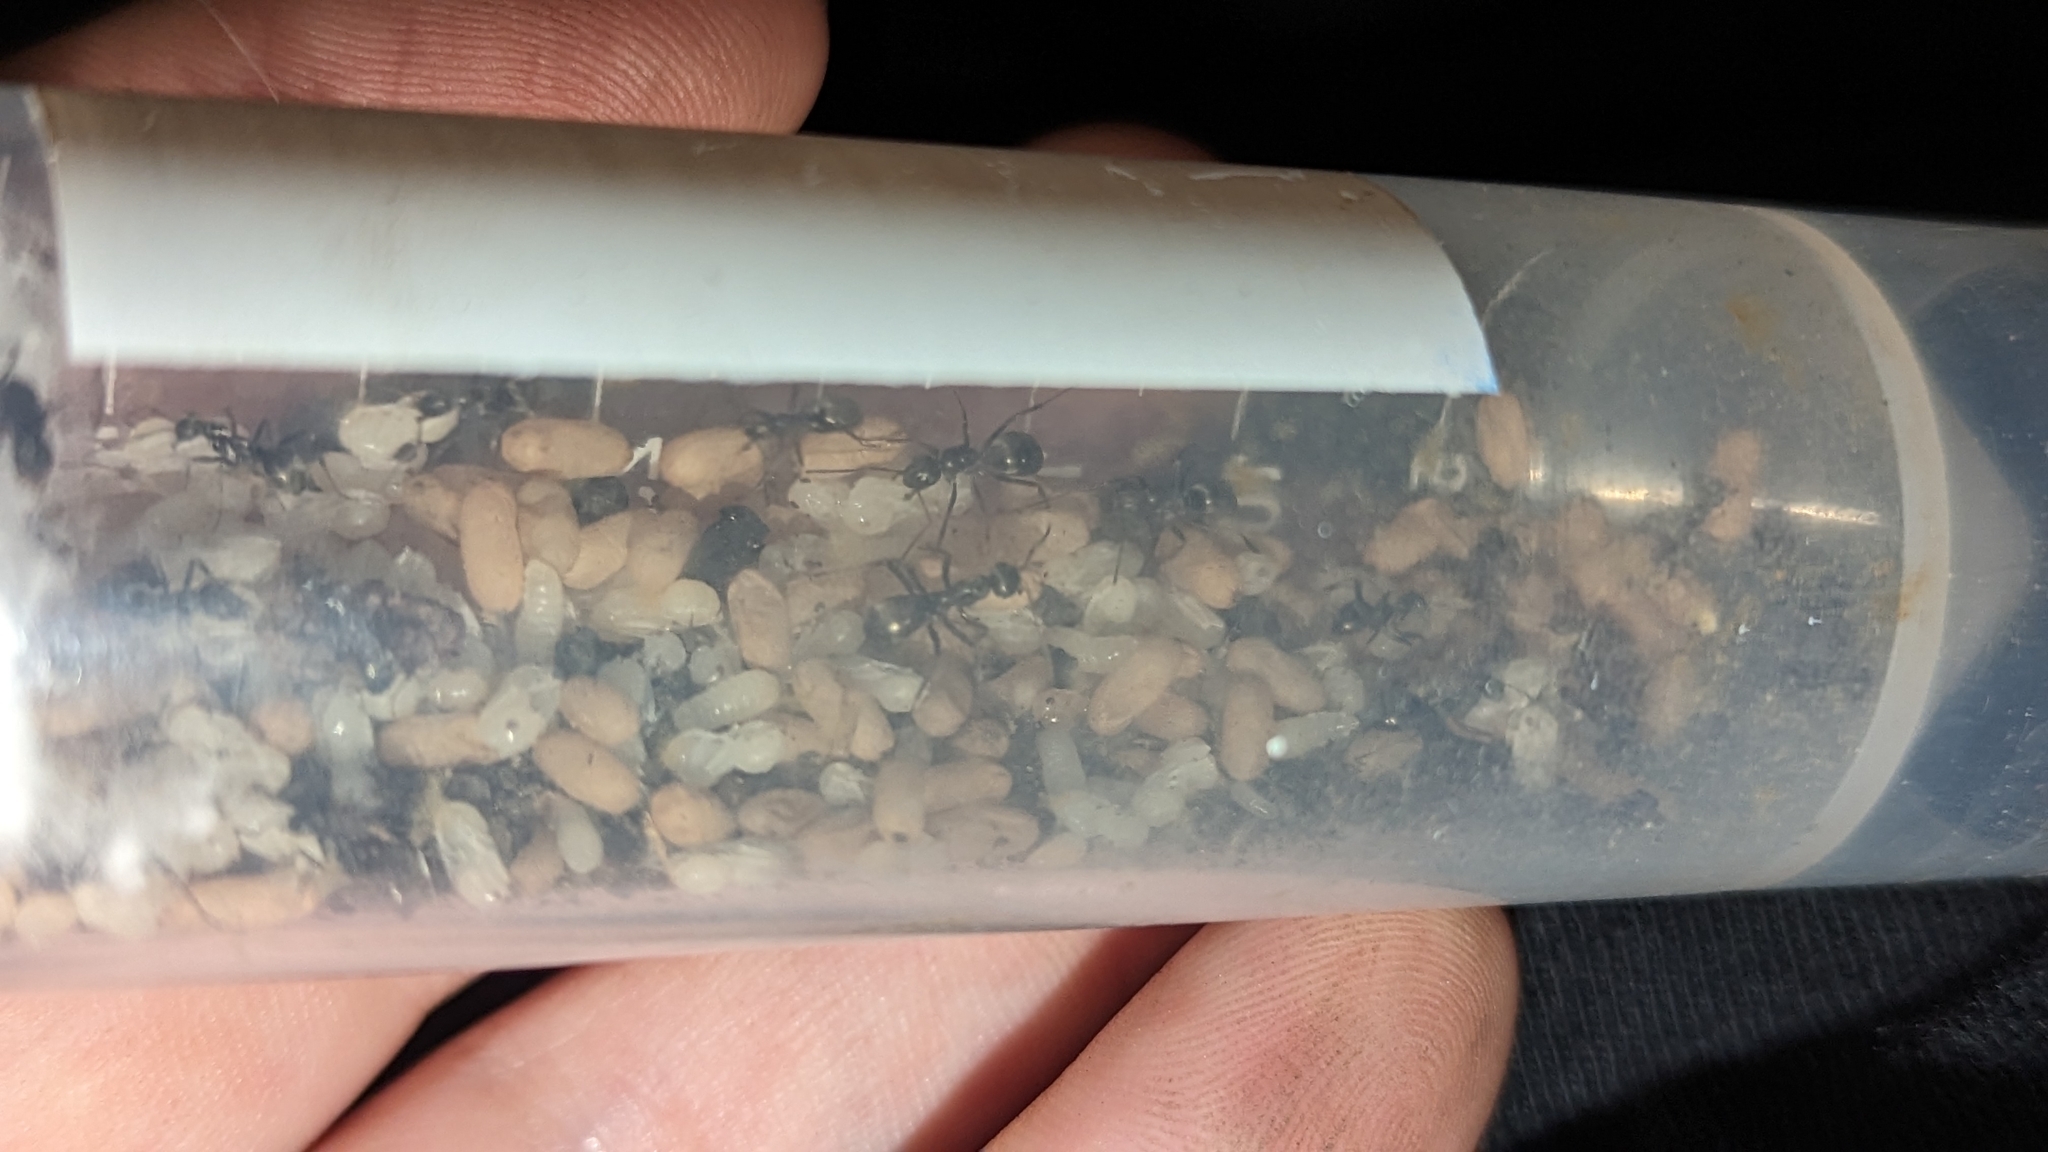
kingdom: Animalia
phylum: Arthropoda
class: Insecta
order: Hymenoptera
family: Formicidae
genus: Formica
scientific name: Formica subsericea
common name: Silky field ant
